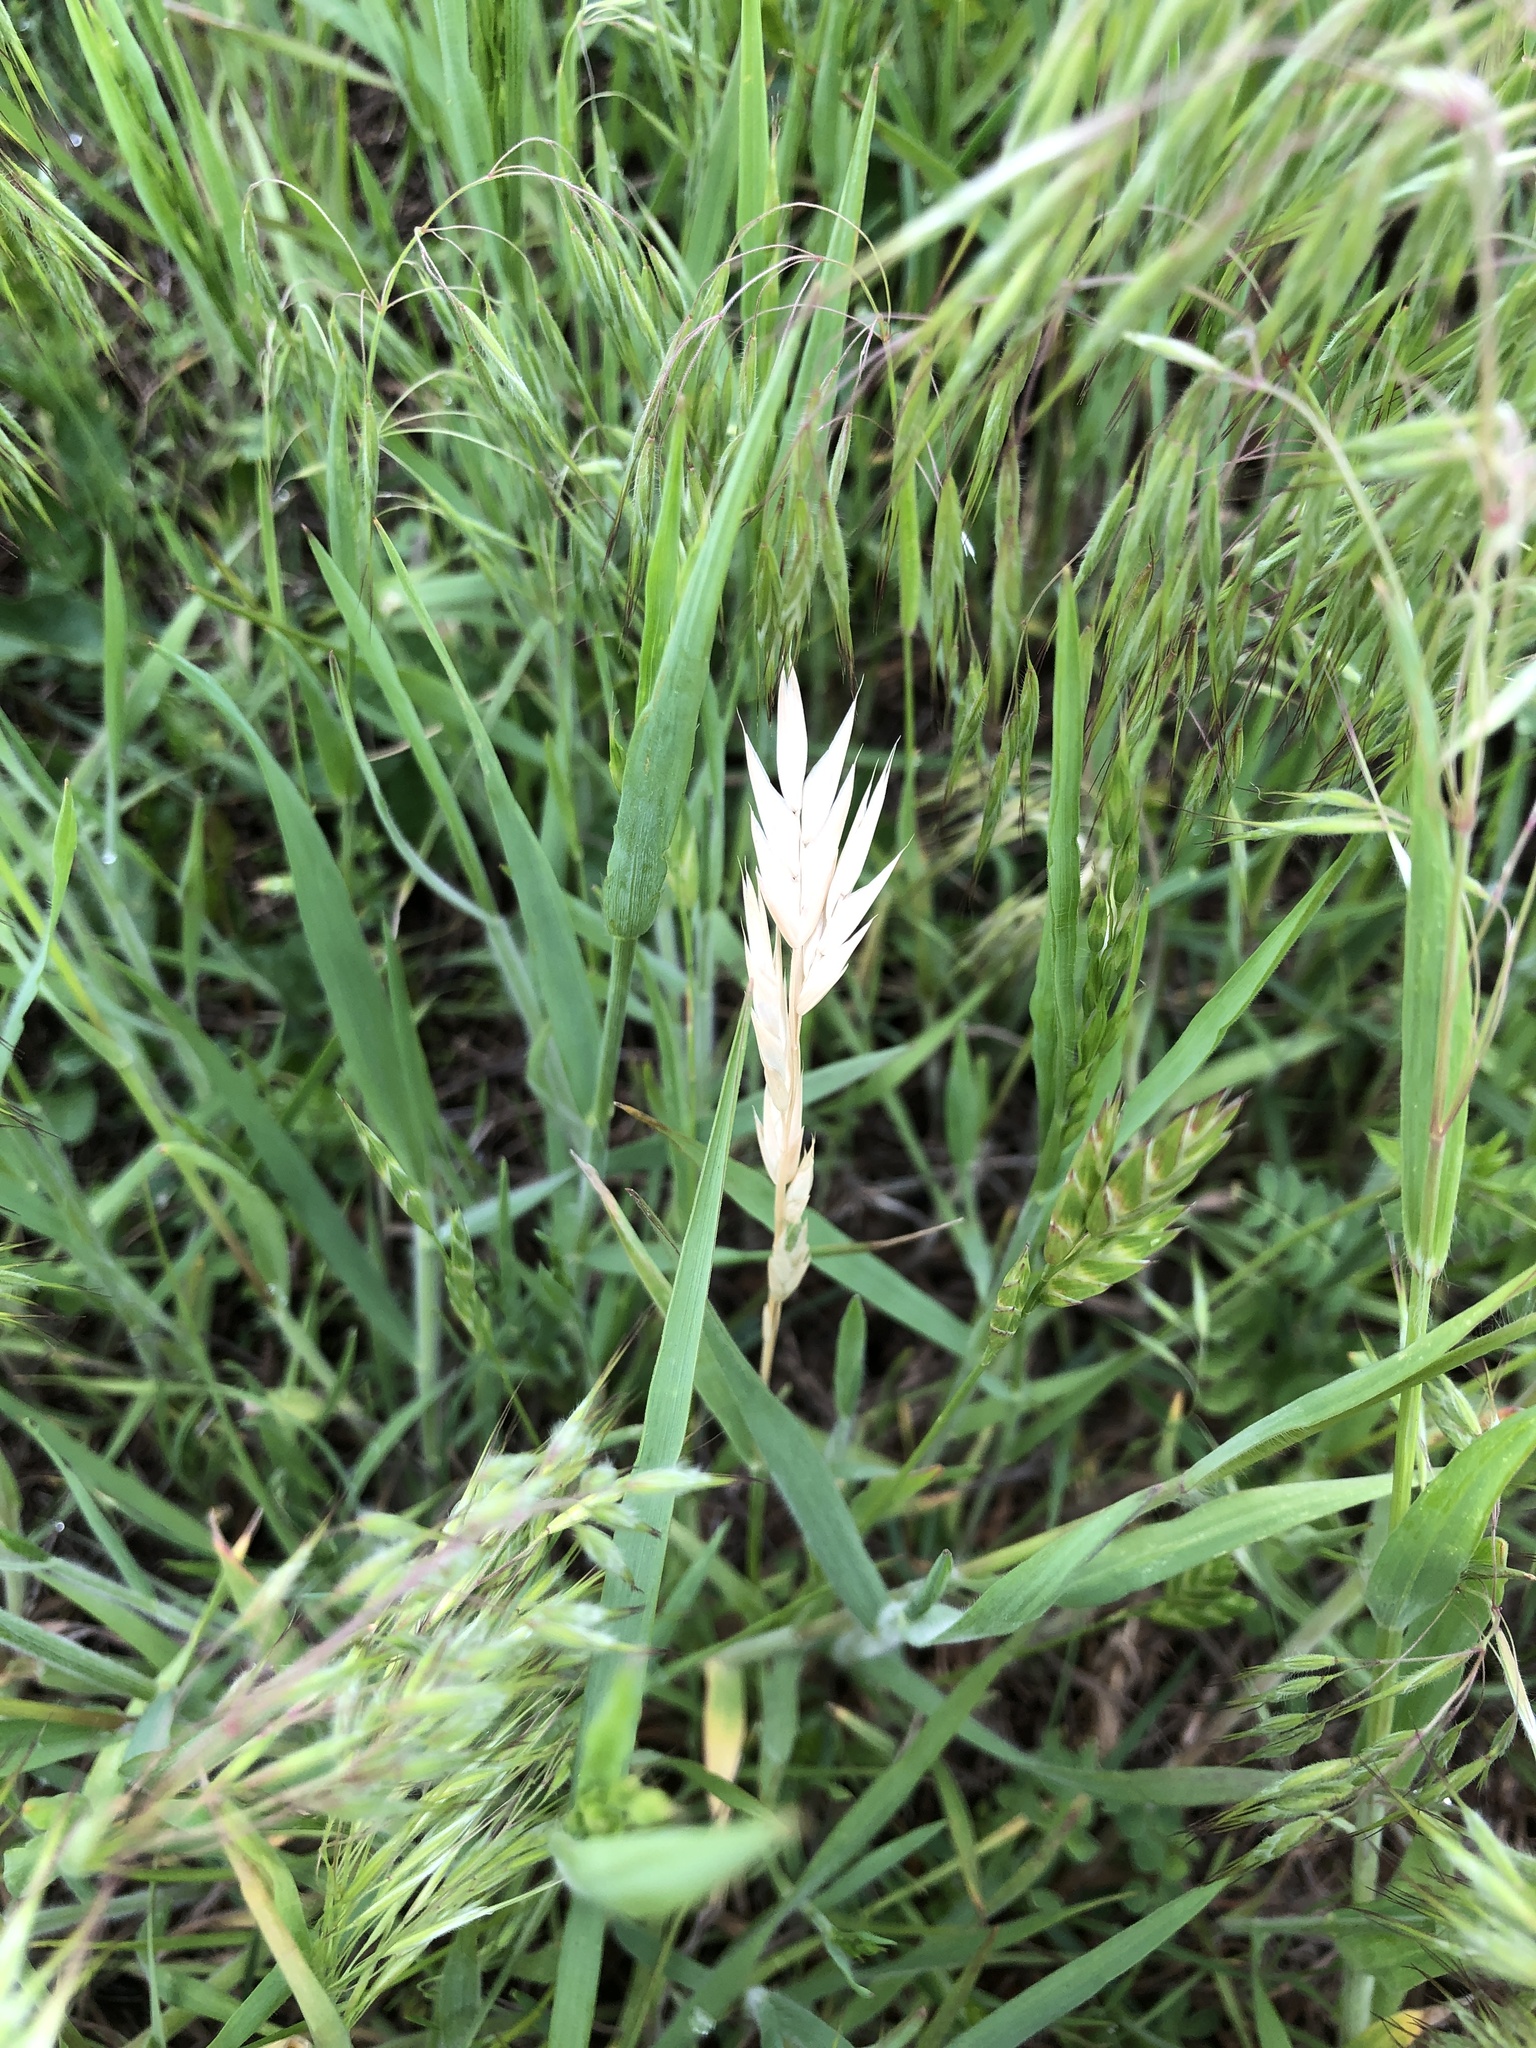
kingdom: Plantae
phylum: Tracheophyta
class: Liliopsida
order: Poales
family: Poaceae
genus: Bromus
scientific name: Bromus catharticus
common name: Rescuegrass
